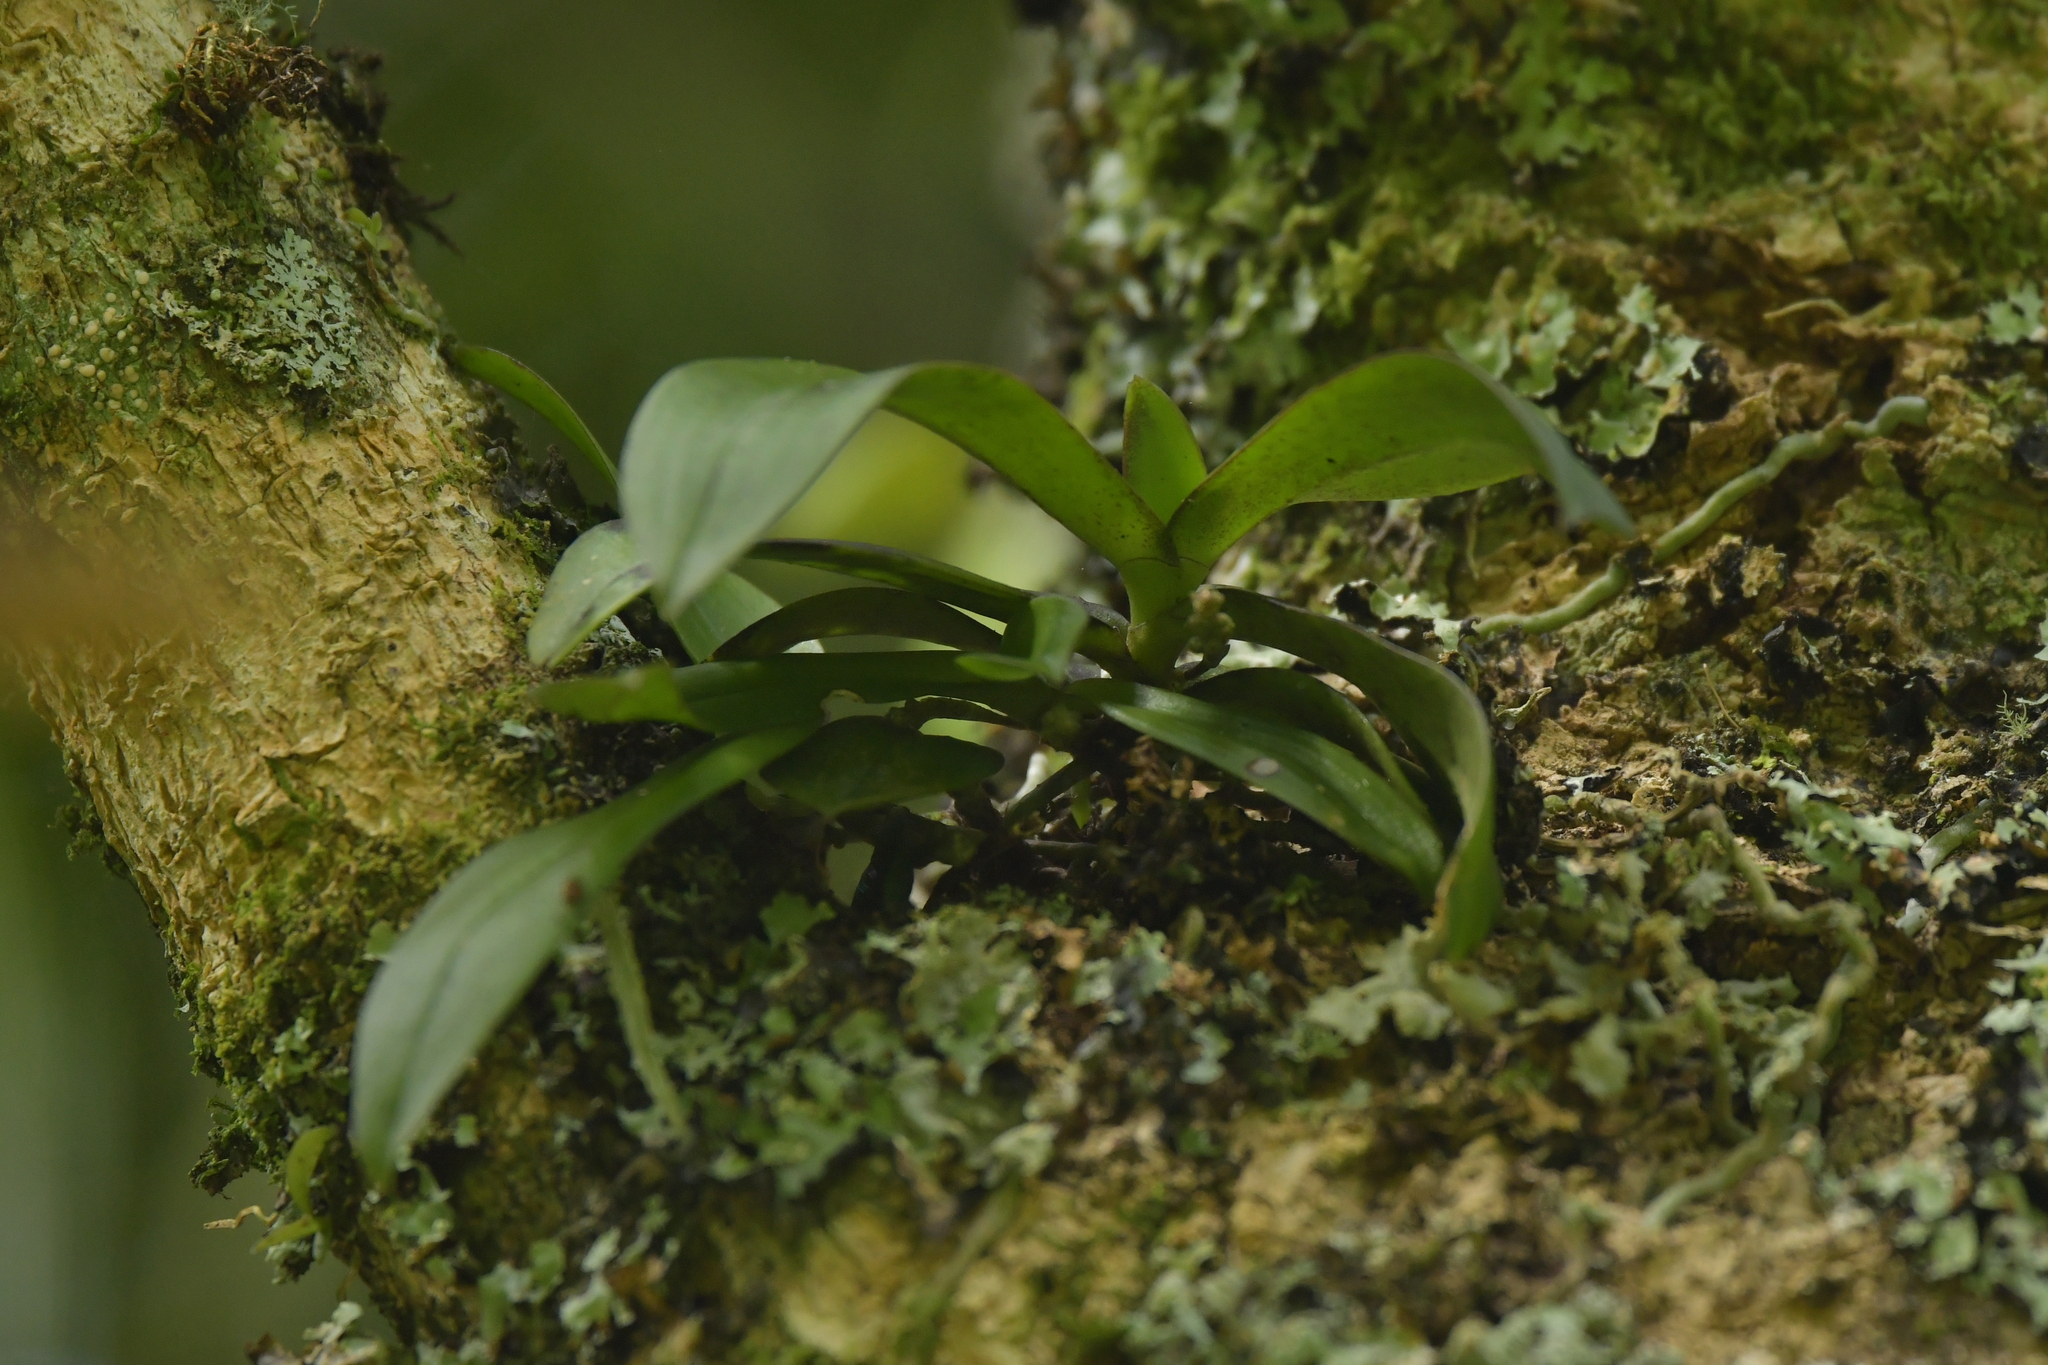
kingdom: Plantae
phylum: Tracheophyta
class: Liliopsida
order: Asparagales
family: Orchidaceae
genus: Drymoanthus
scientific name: Drymoanthus adversus
